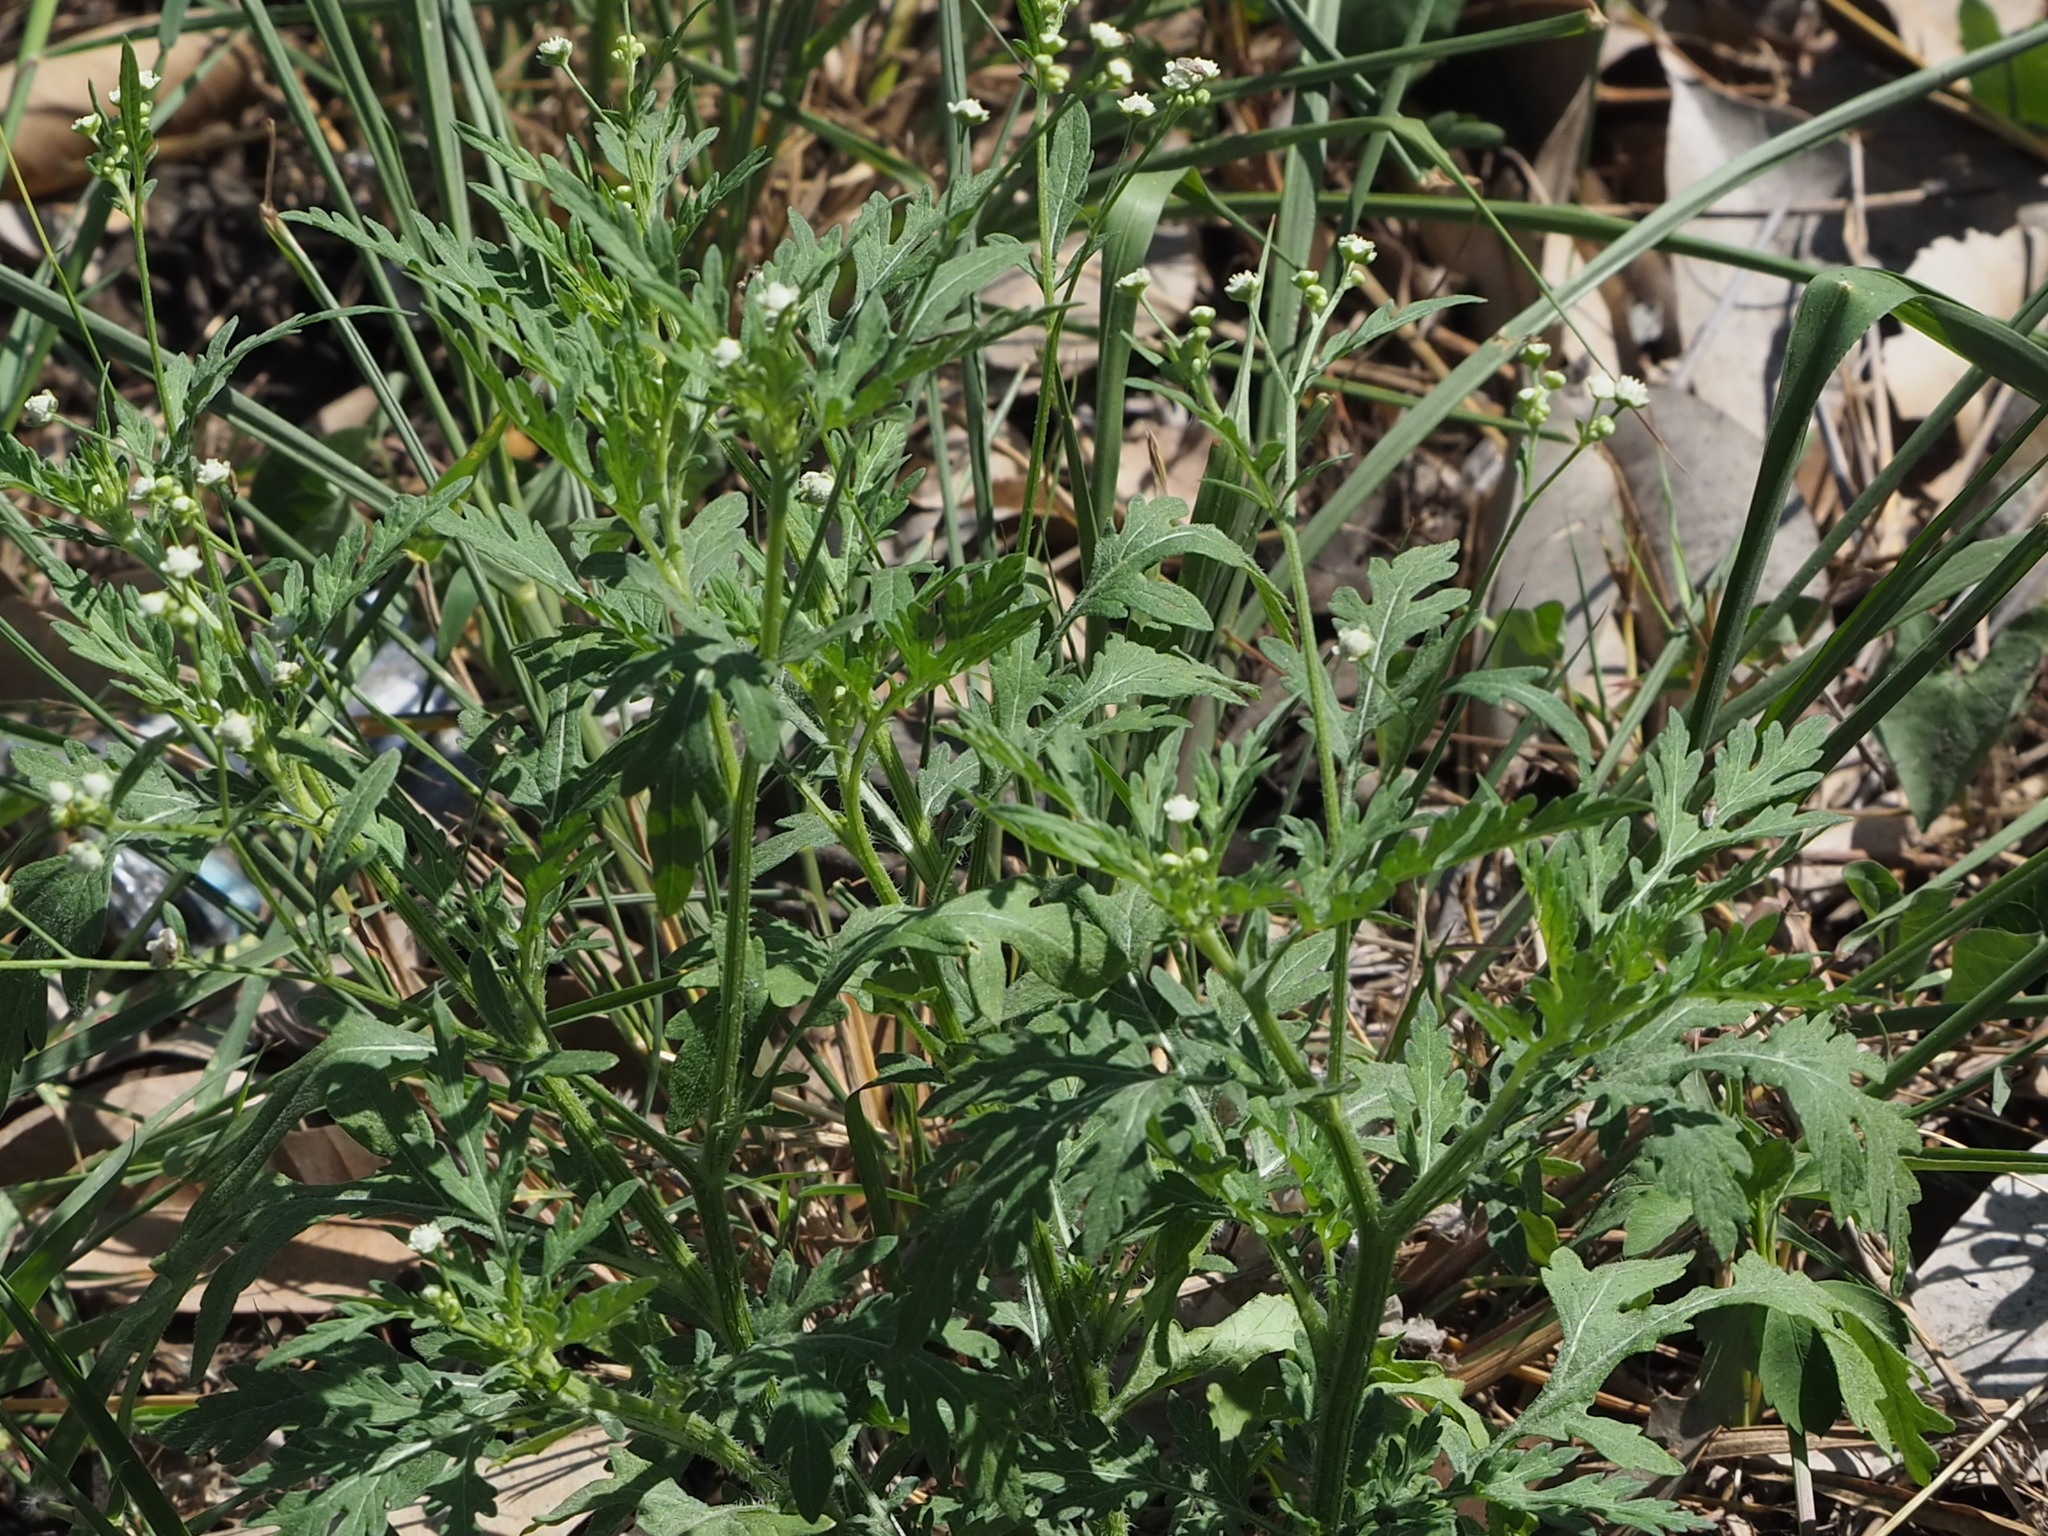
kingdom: Plantae
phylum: Tracheophyta
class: Magnoliopsida
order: Asterales
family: Asteraceae
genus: Parthenium
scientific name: Parthenium hysterophorus
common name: Santa maria feverfew
